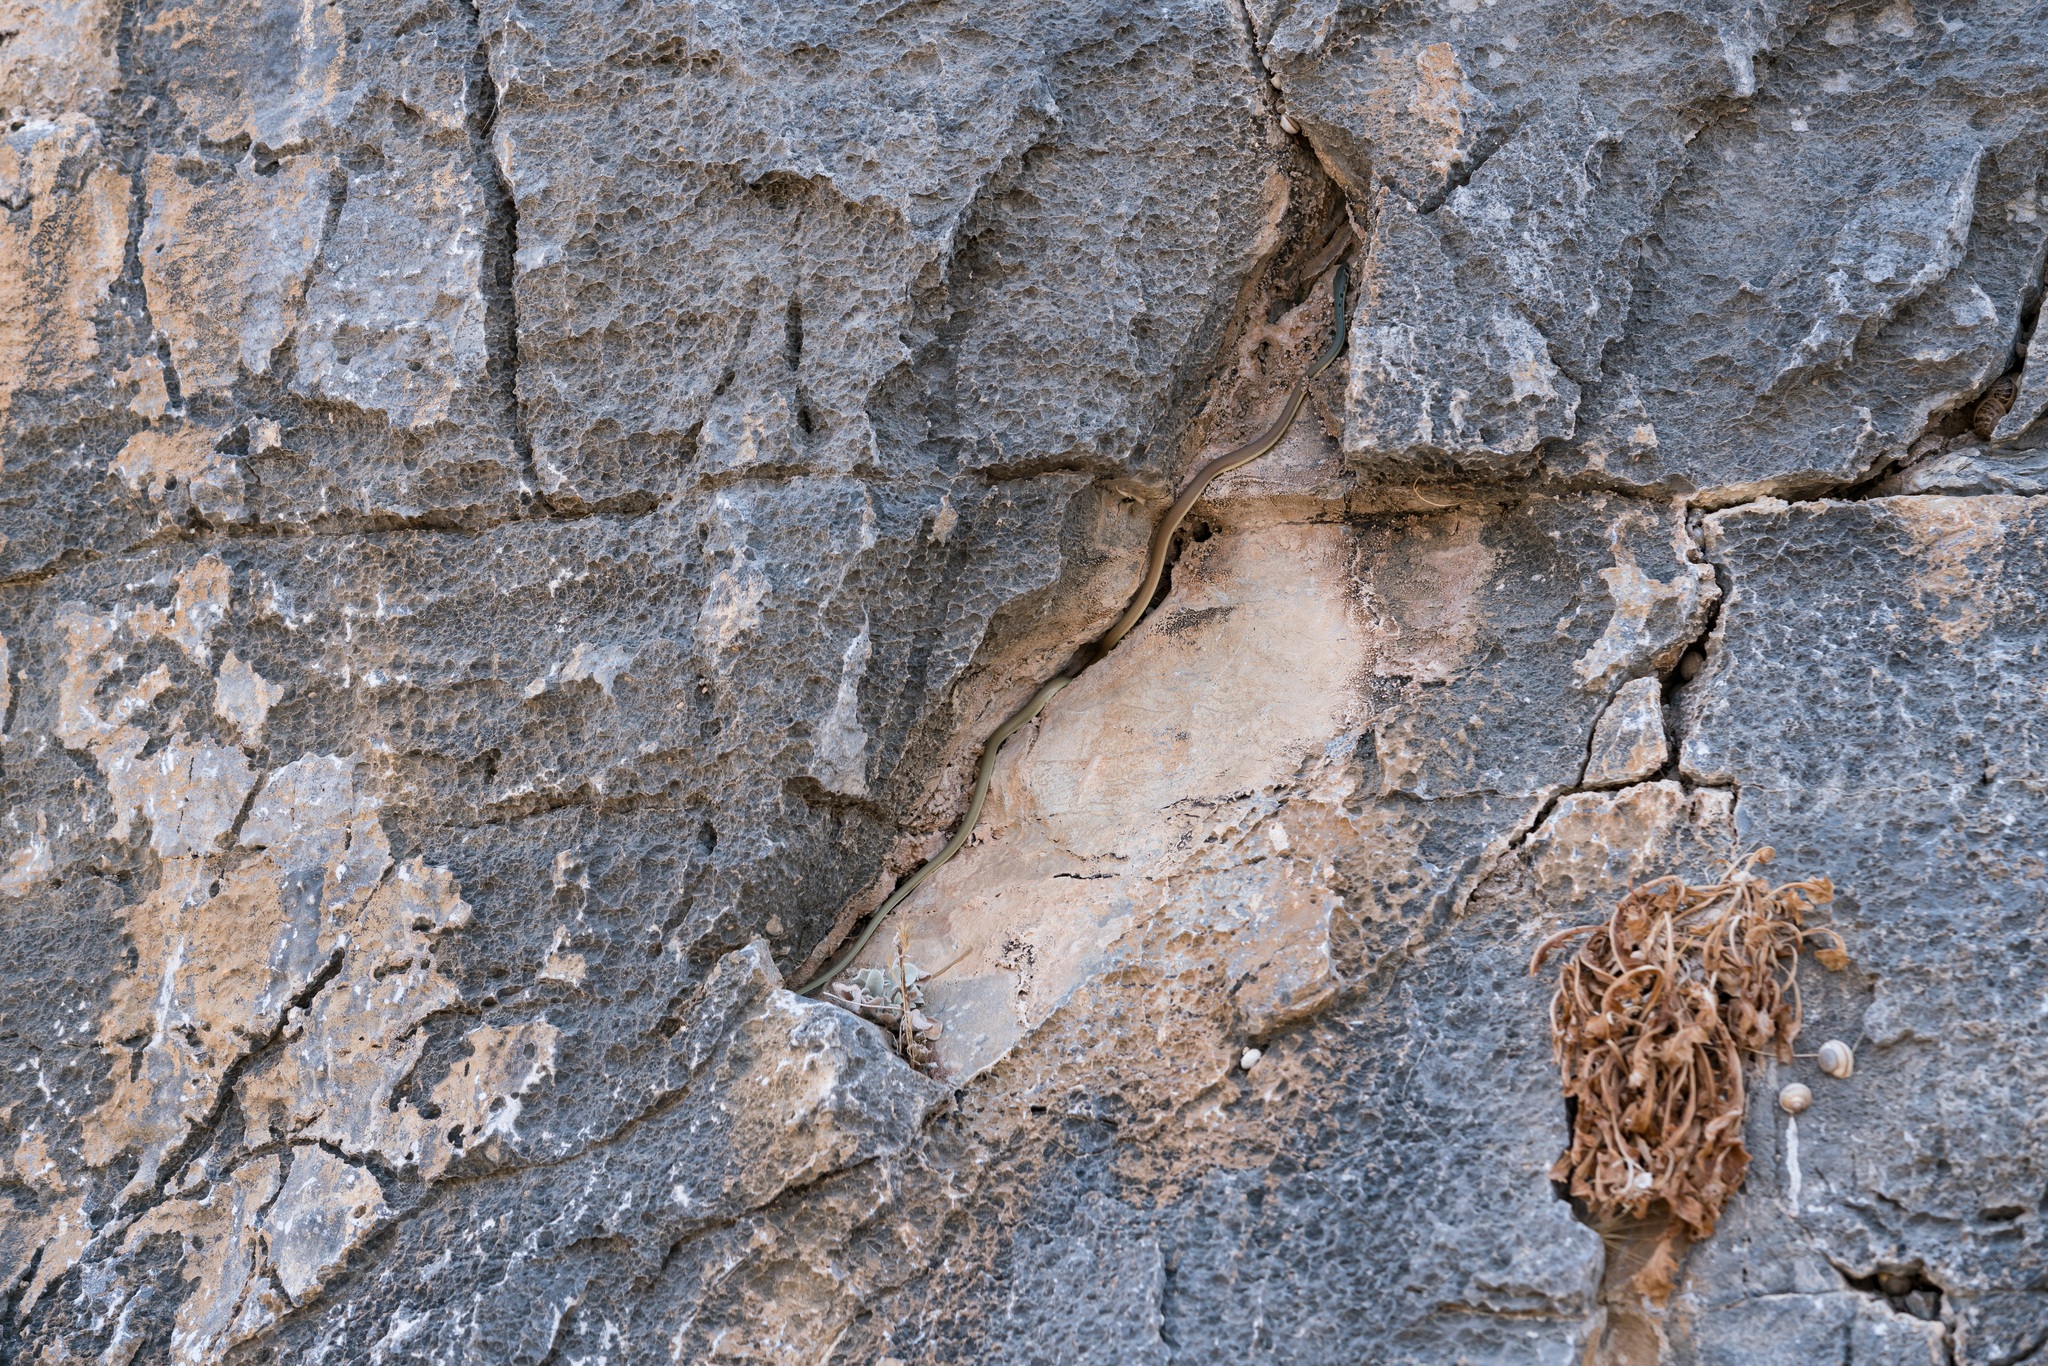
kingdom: Animalia
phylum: Chordata
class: Squamata
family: Colubridae
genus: Platyceps
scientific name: Platyceps najadum
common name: Dahl's whip snake
